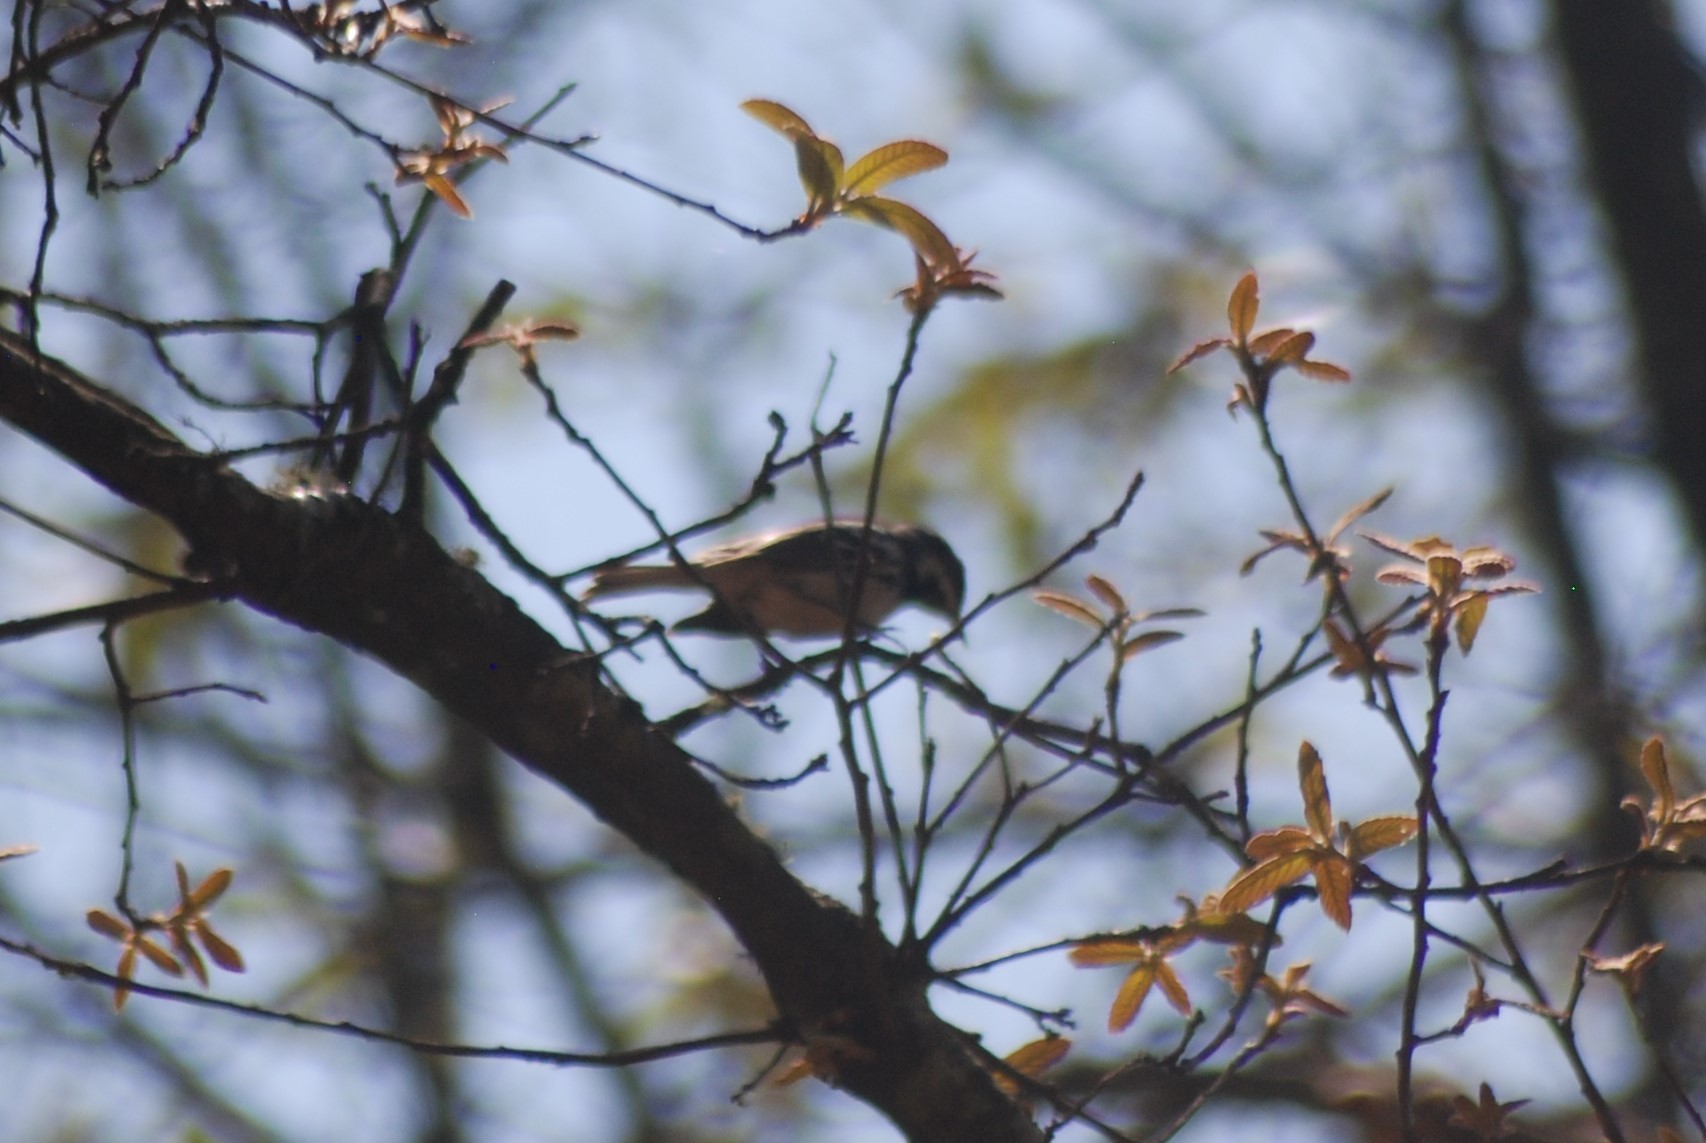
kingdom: Animalia
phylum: Chordata
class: Aves
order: Passeriformes
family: Parulidae
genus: Setophaga
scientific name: Setophaga nigrescens
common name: Black-throated gray warbler
